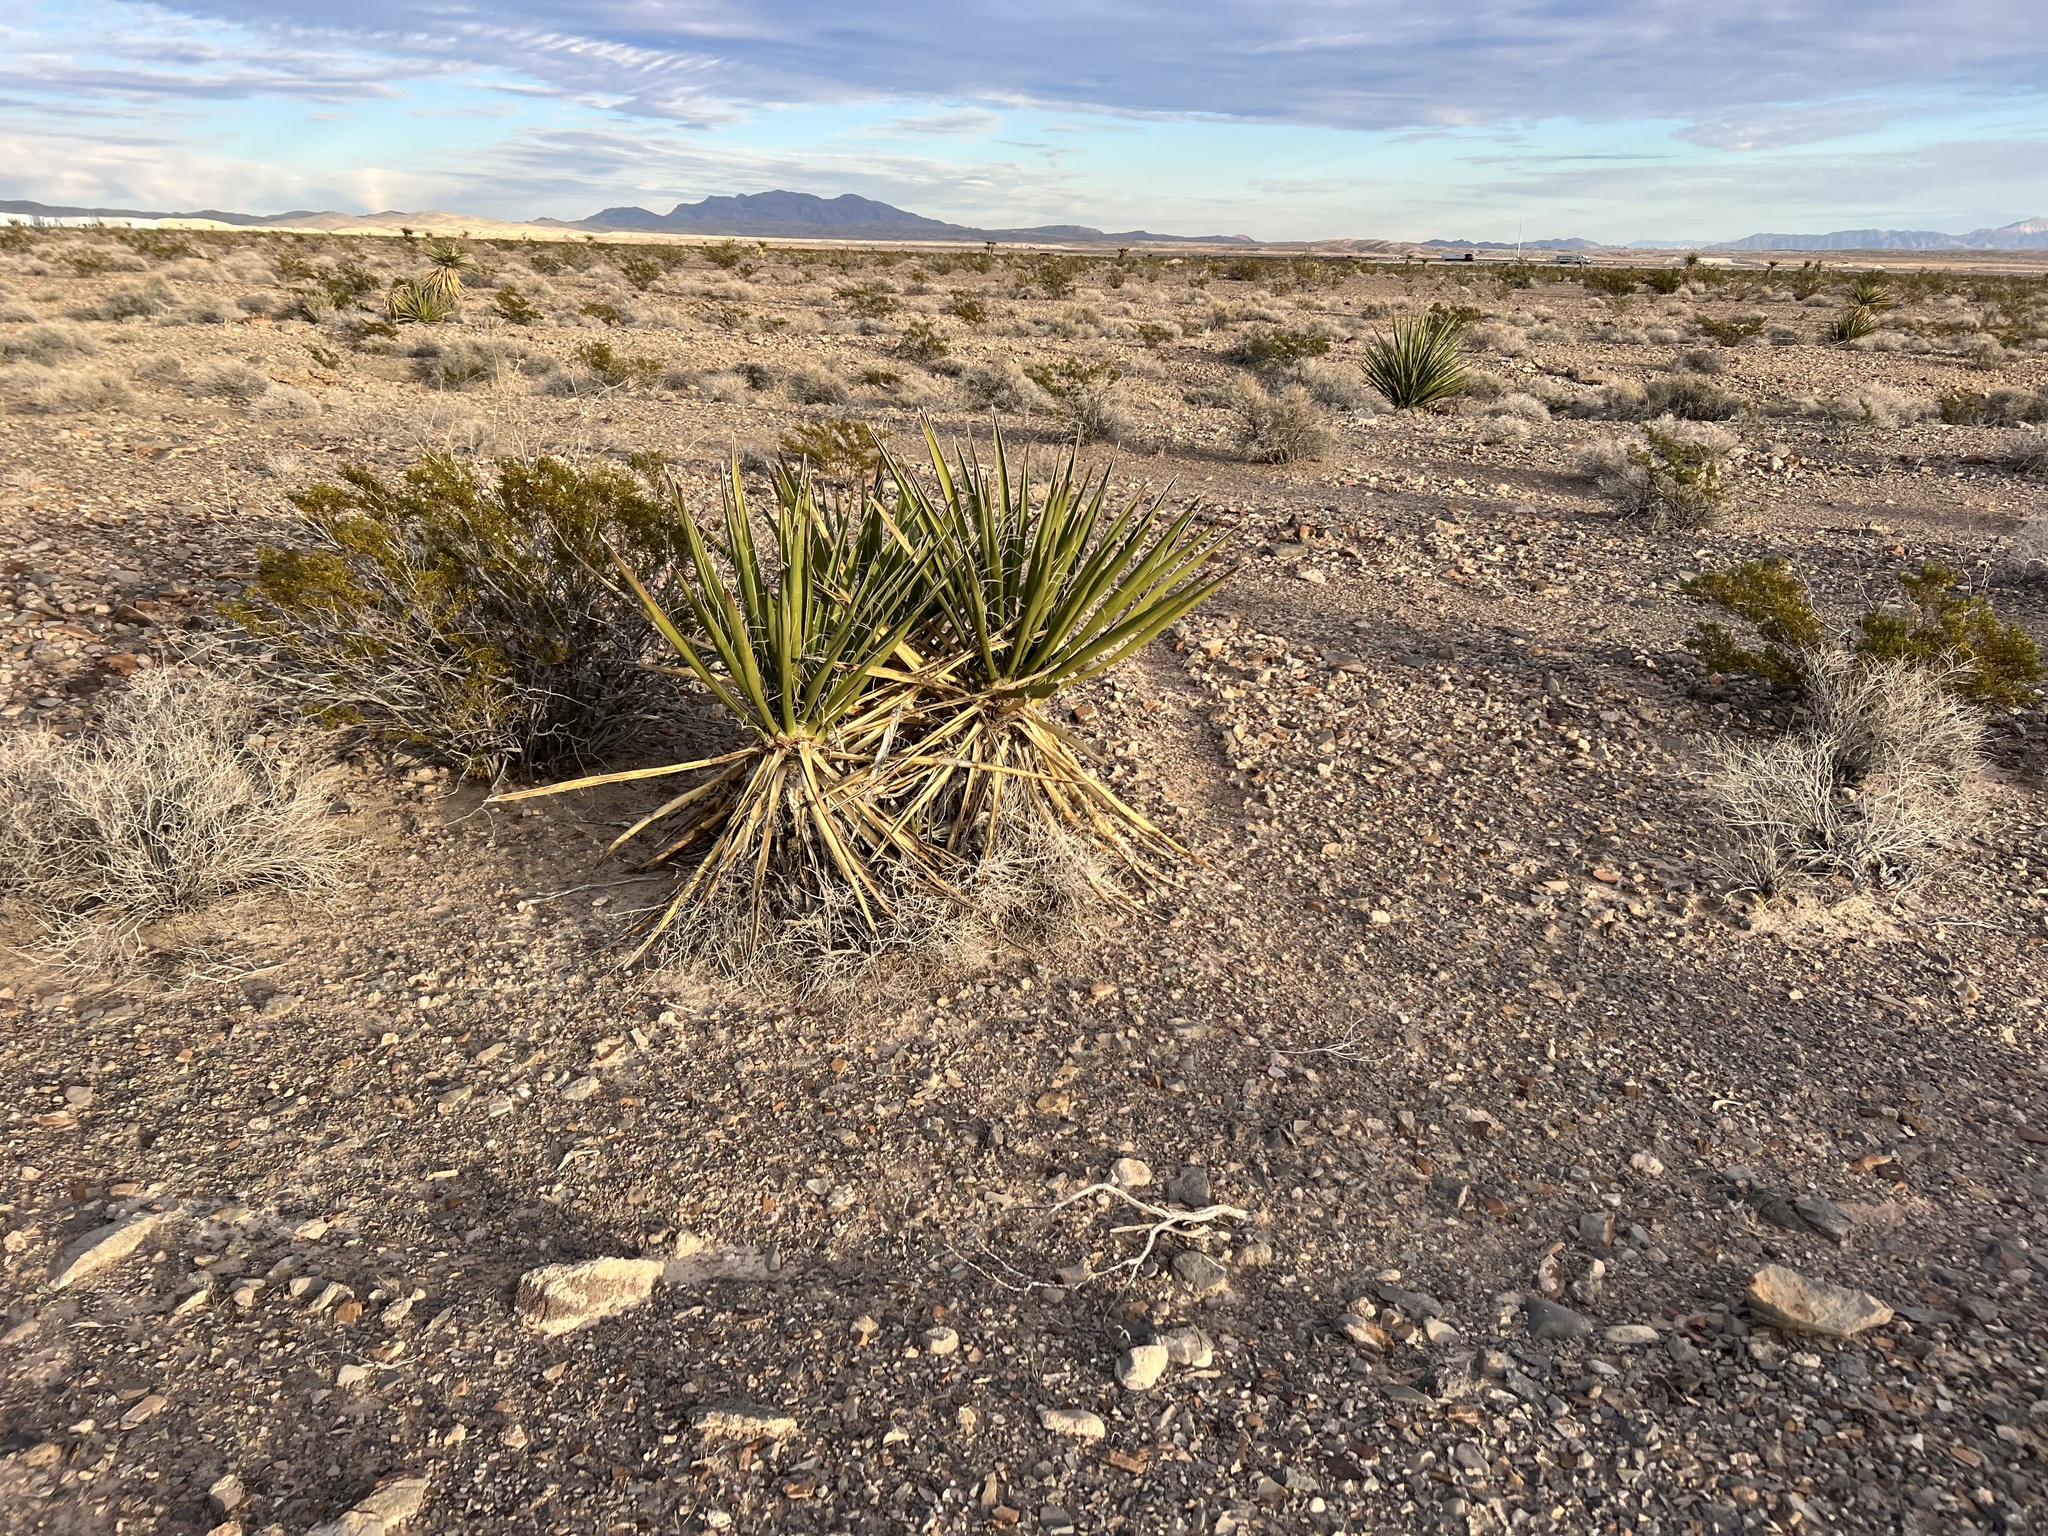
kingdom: Plantae
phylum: Tracheophyta
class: Liliopsida
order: Asparagales
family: Asparagaceae
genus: Yucca
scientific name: Yucca schidigera
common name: Mojave yucca
